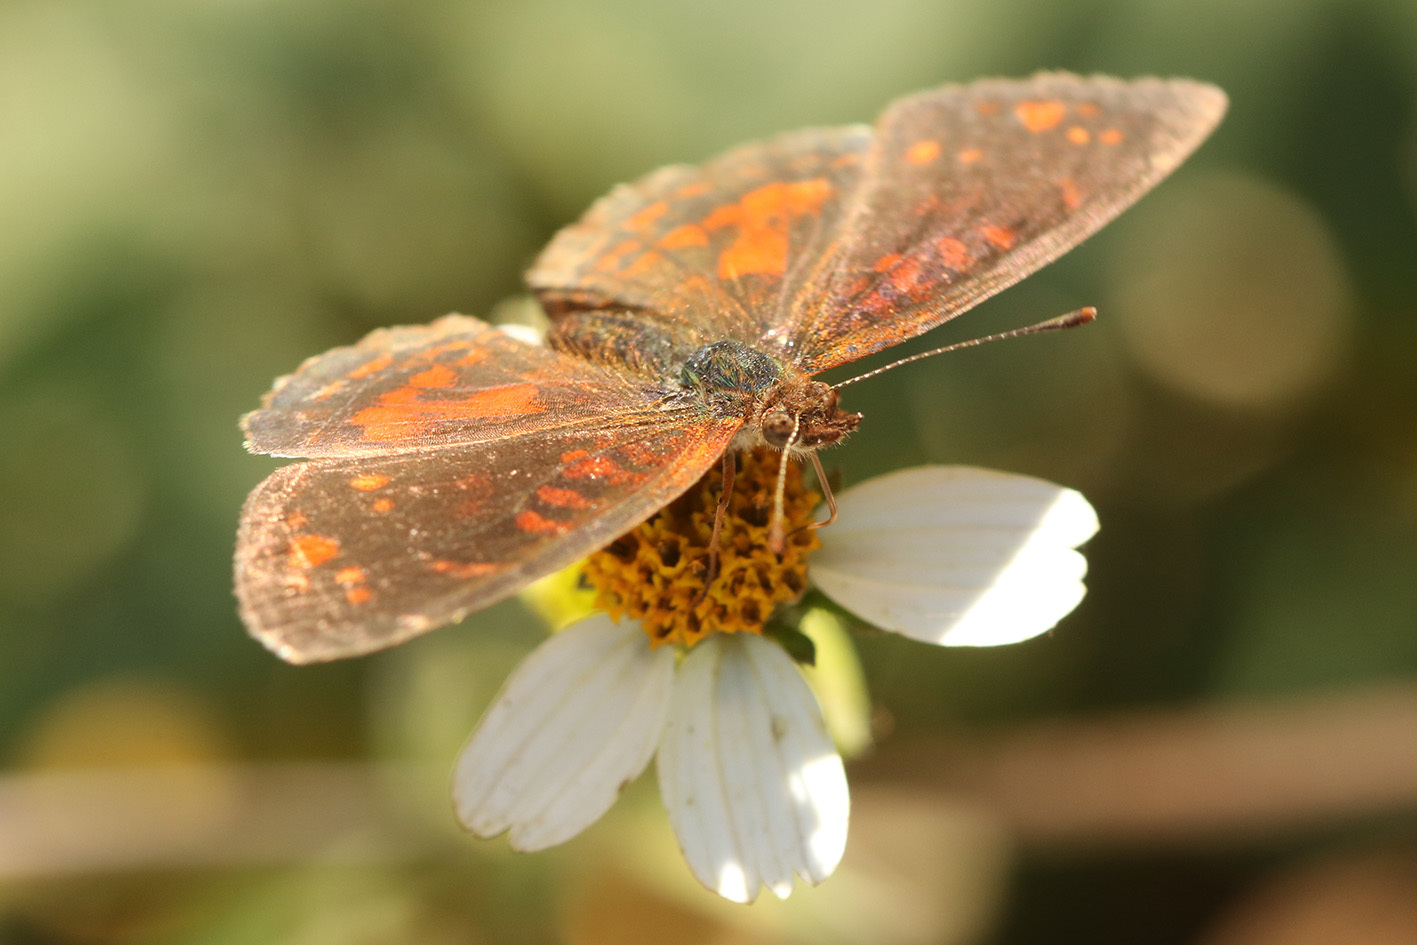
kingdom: Animalia
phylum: Arthropoda
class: Insecta
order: Lepidoptera
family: Nymphalidae
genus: Ortilia
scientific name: Ortilia velica
